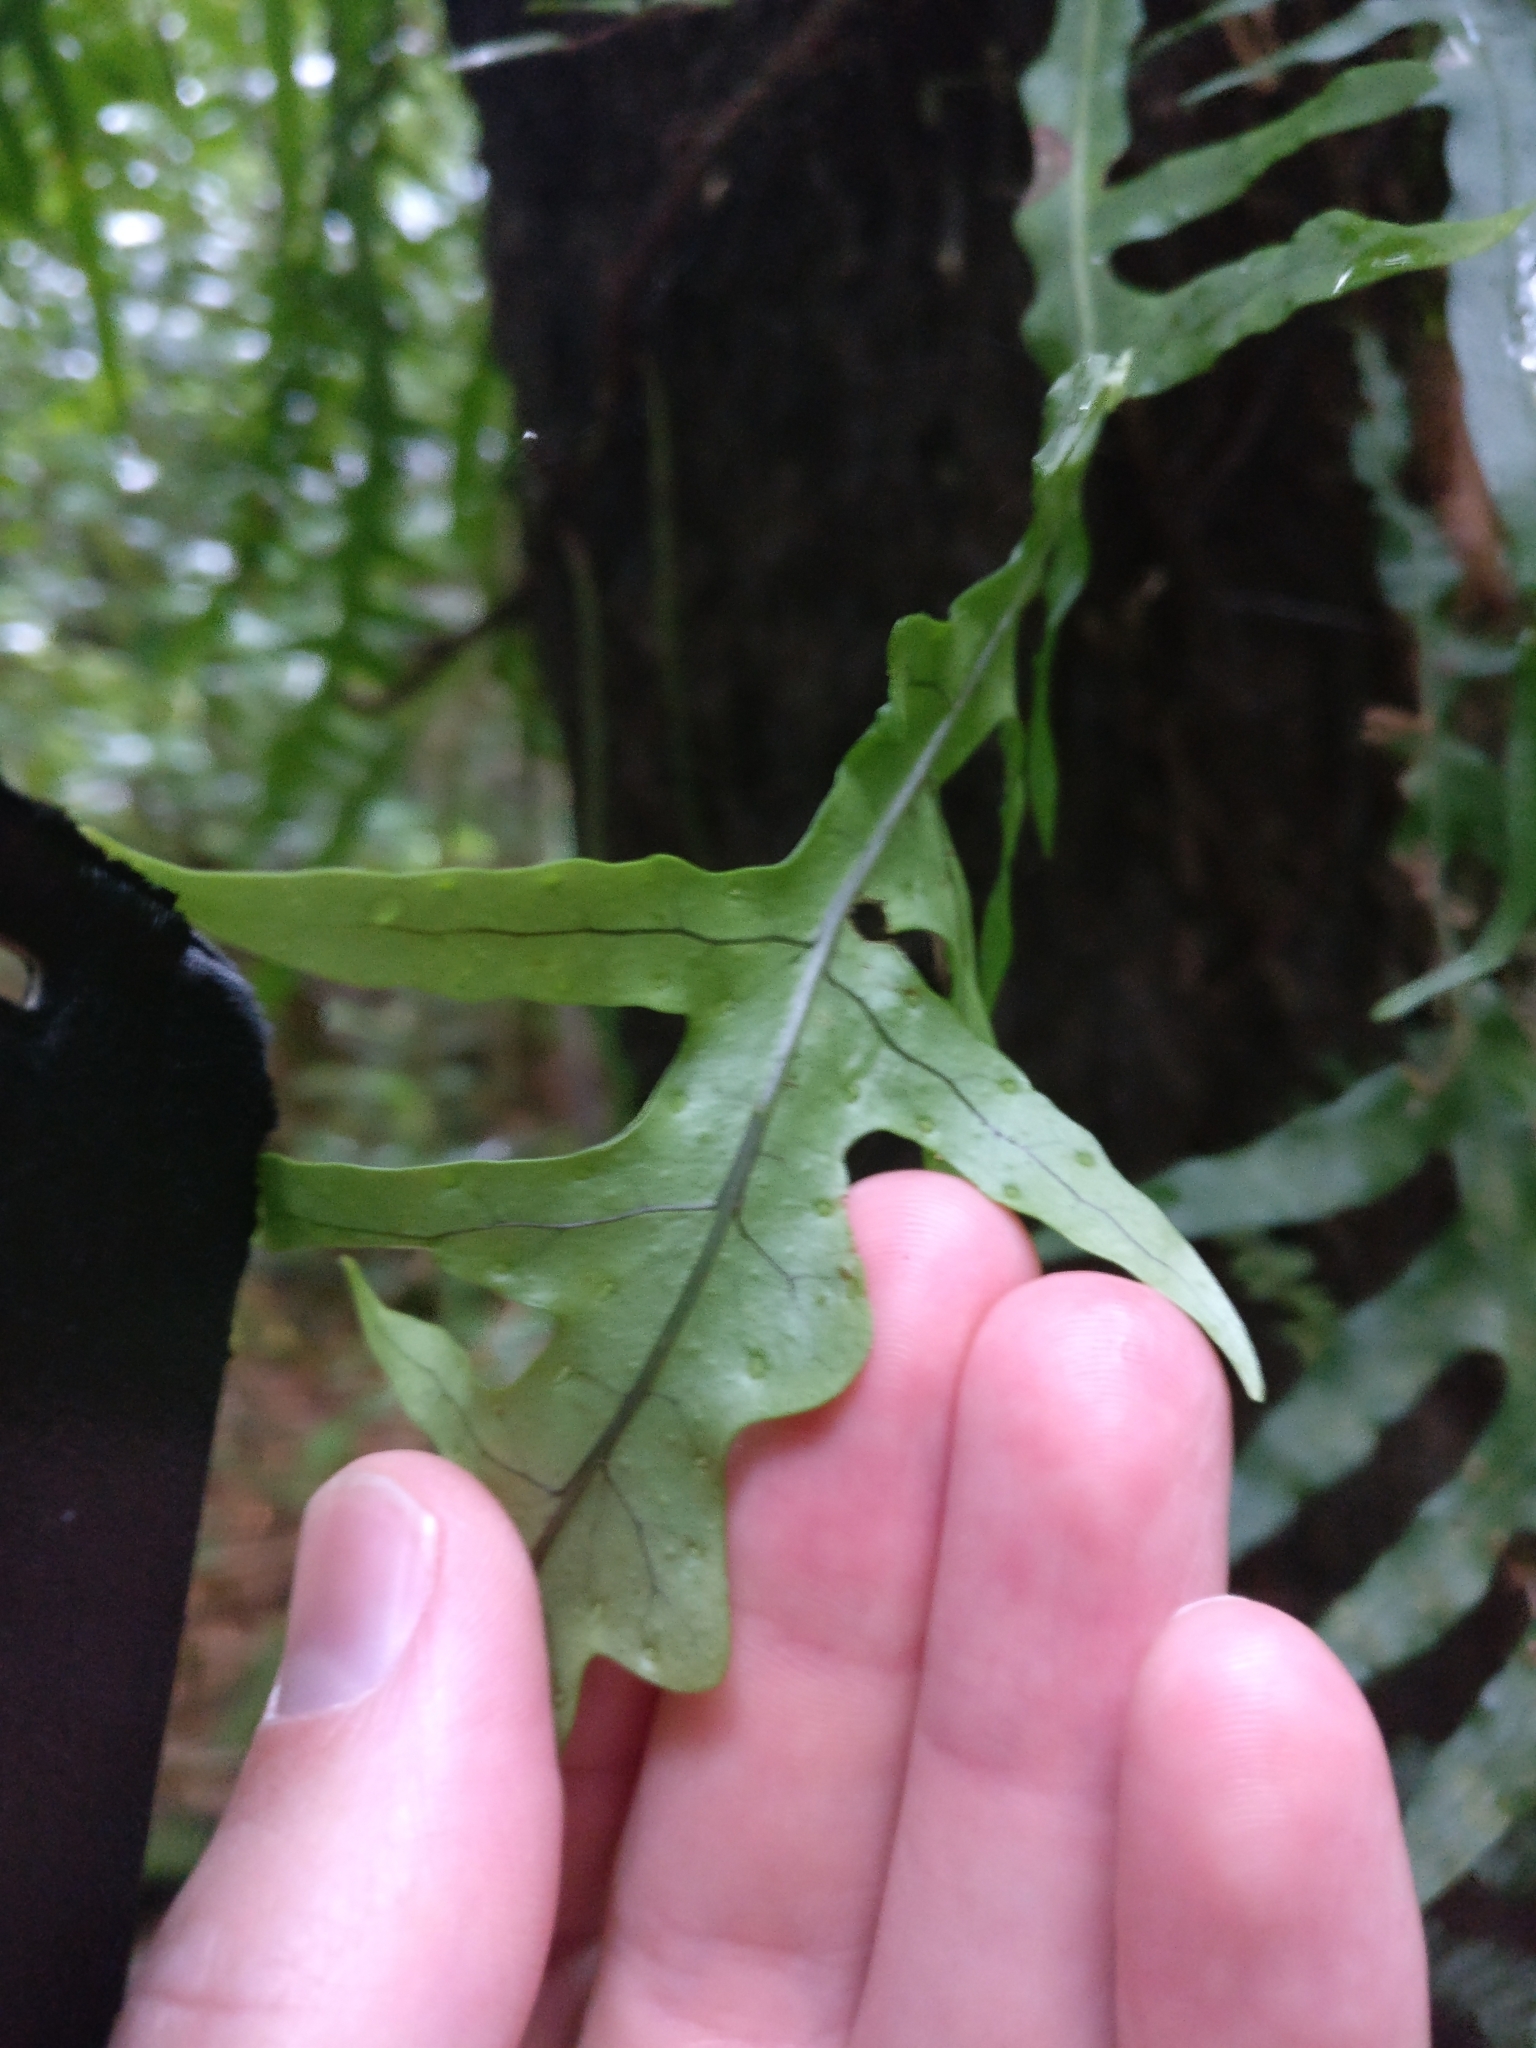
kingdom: Plantae
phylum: Tracheophyta
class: Polypodiopsida
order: Polypodiales
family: Polypodiaceae
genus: Lecanopteris
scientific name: Lecanopteris scandens
